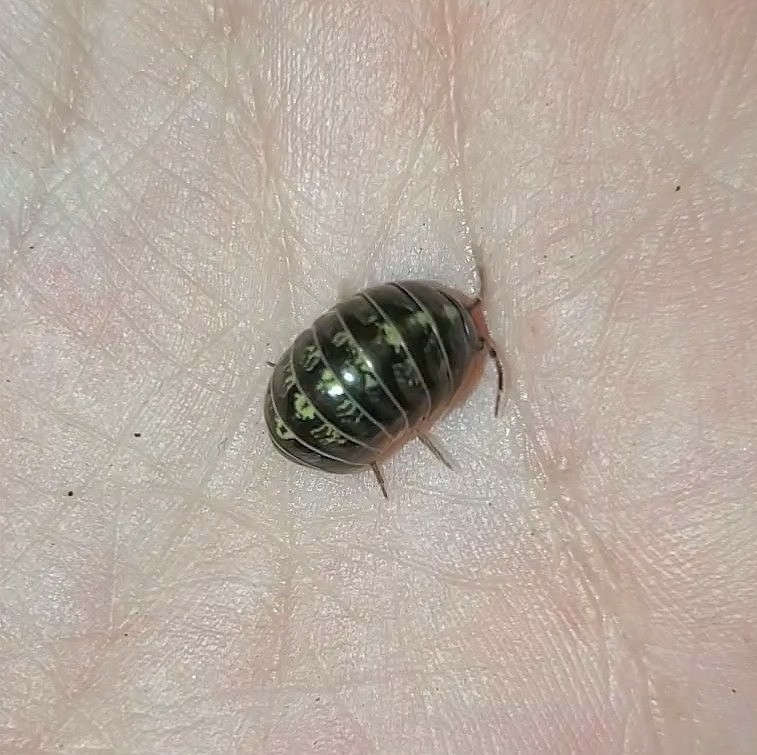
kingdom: Animalia
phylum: Arthropoda
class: Malacostraca
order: Isopoda
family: Armadillidiidae
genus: Armadillidium
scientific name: Armadillidium vulgare
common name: Common pill woodlouse
